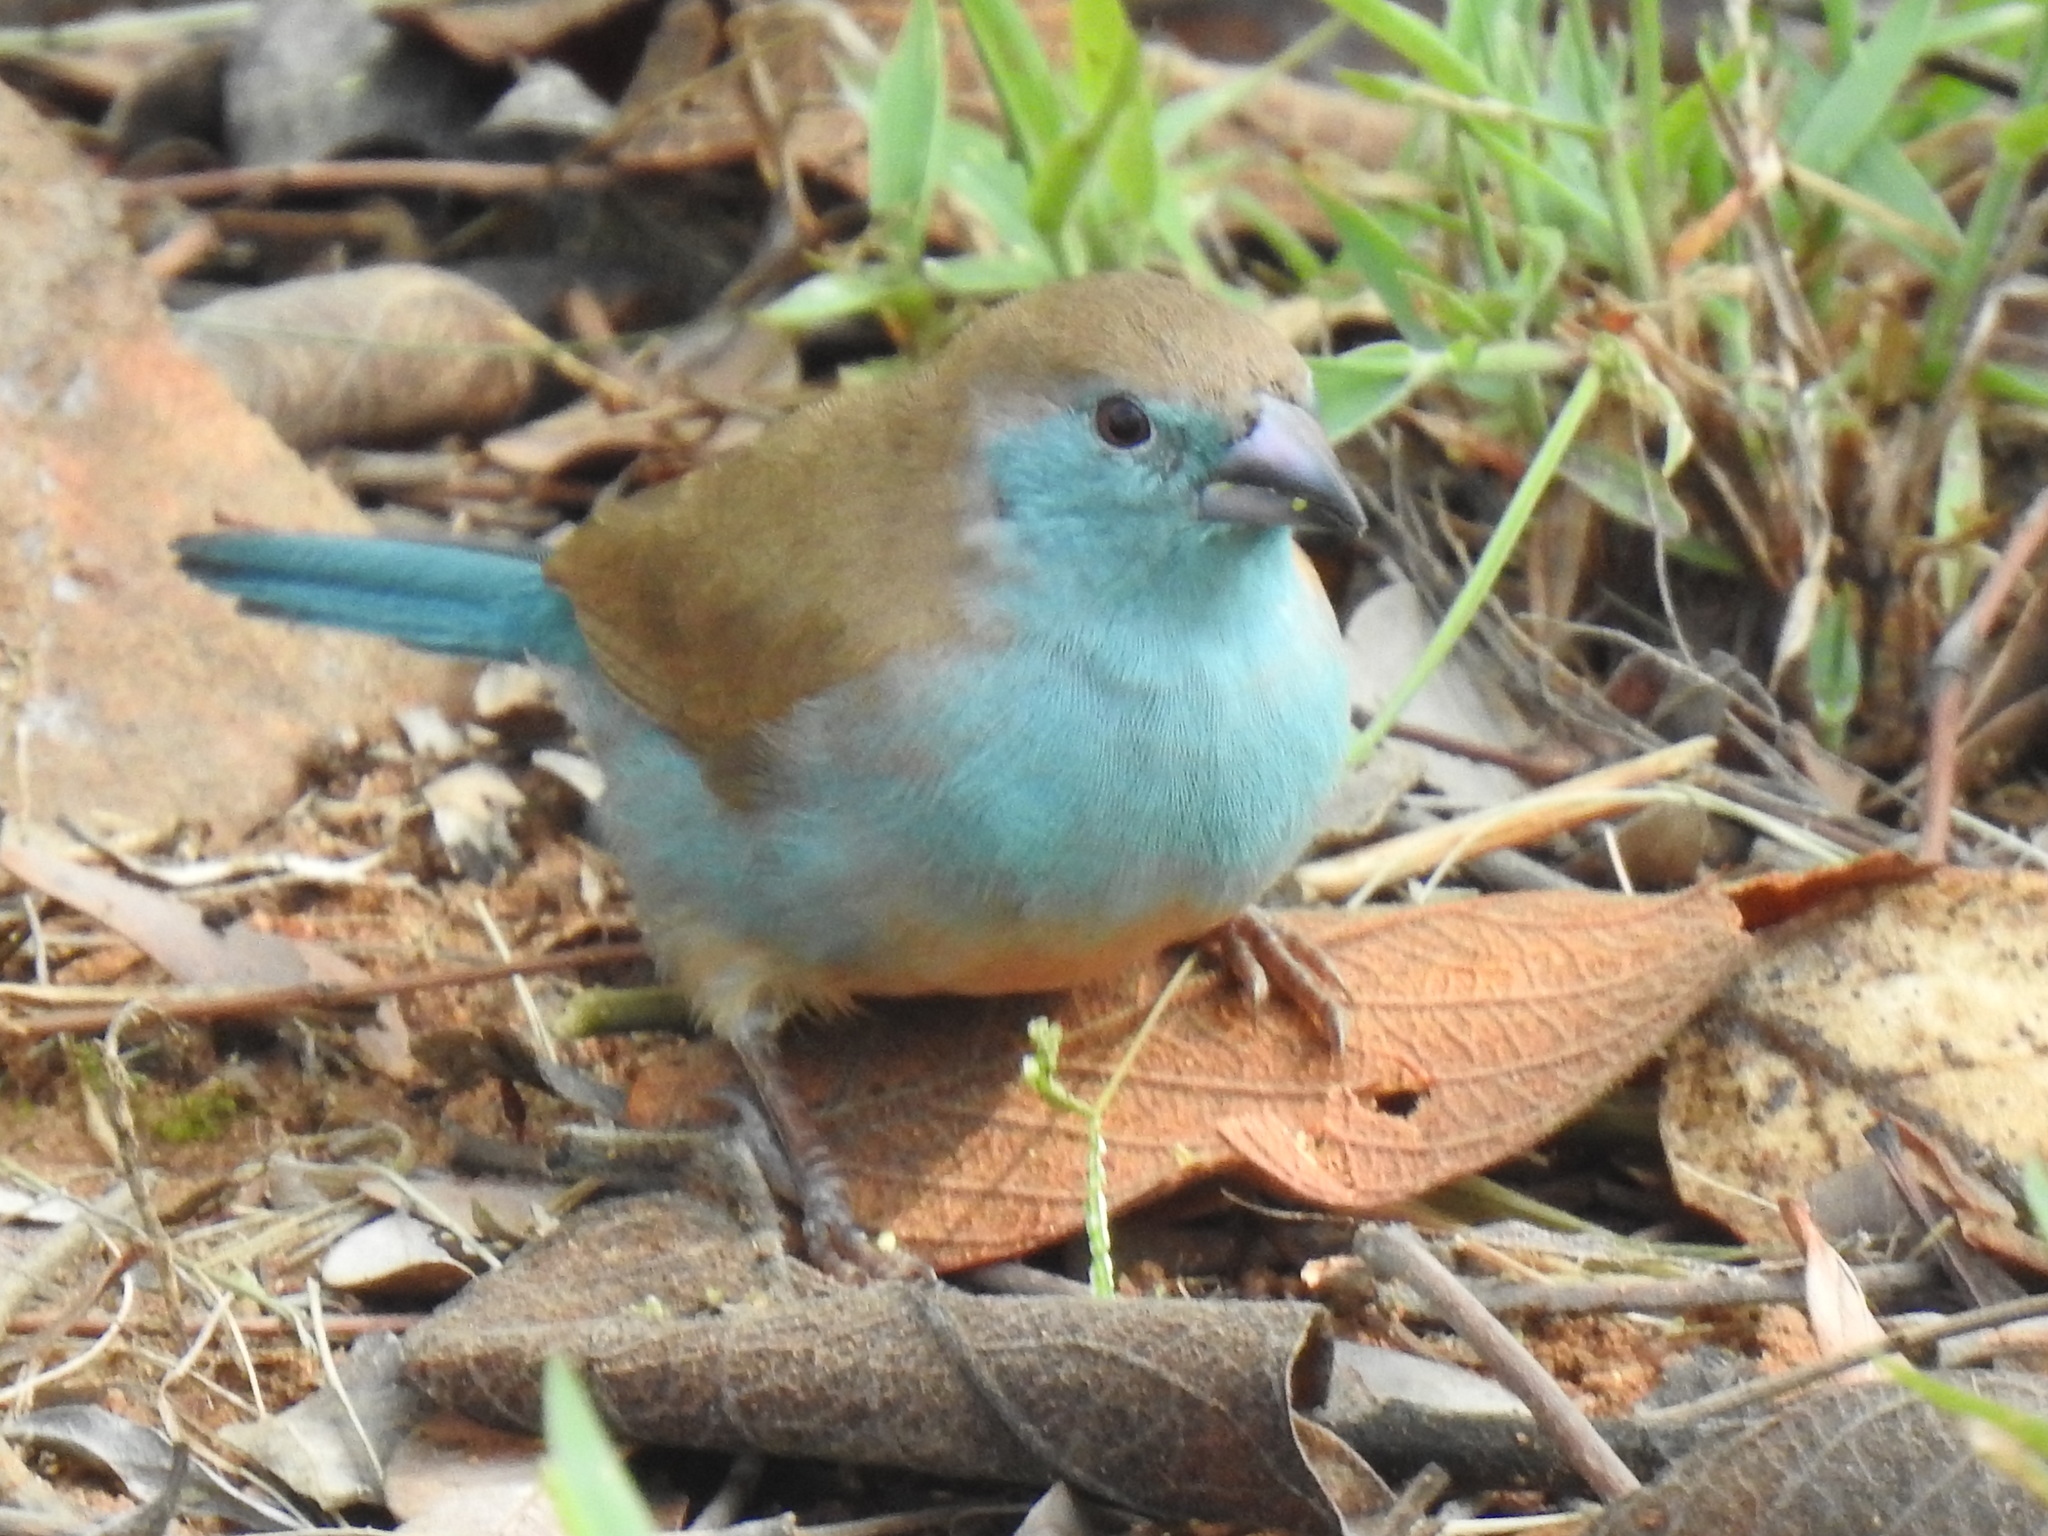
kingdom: Animalia
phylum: Chordata
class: Aves
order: Passeriformes
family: Estrildidae
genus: Uraeginthus
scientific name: Uraeginthus angolensis
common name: Blue waxbill
